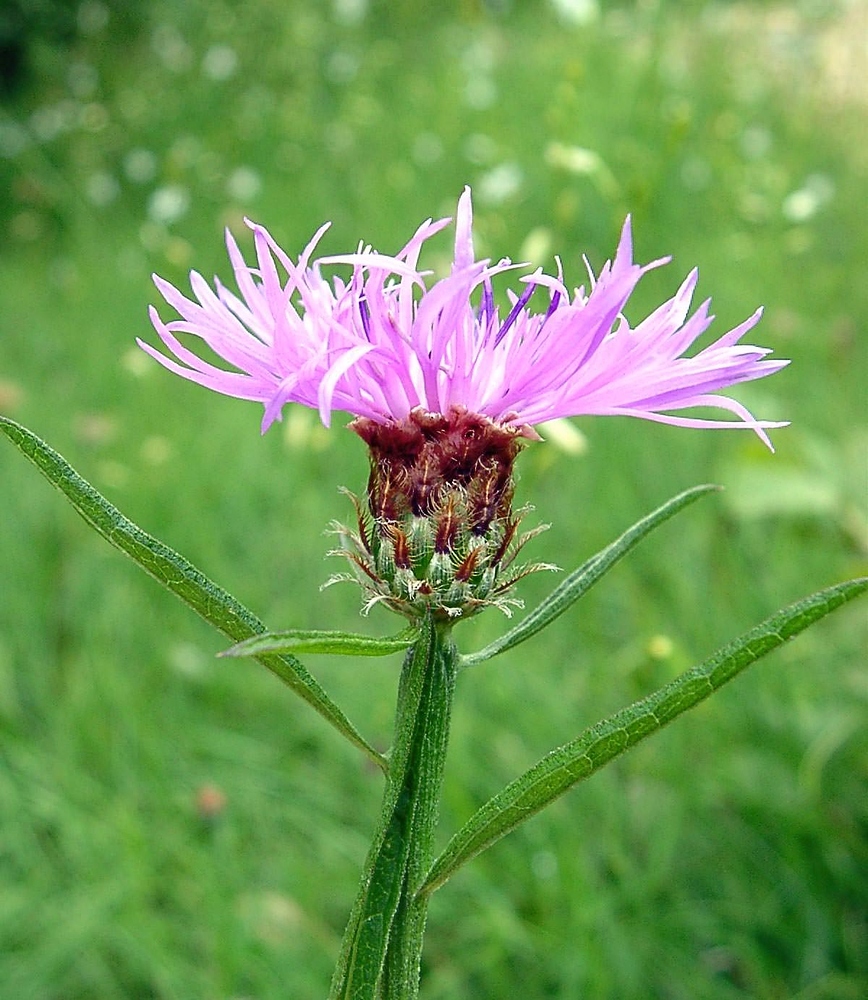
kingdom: Plantae
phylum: Tracheophyta
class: Magnoliopsida
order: Asterales
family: Asteraceae
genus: Centaurea
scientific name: Centaurea decipiens
